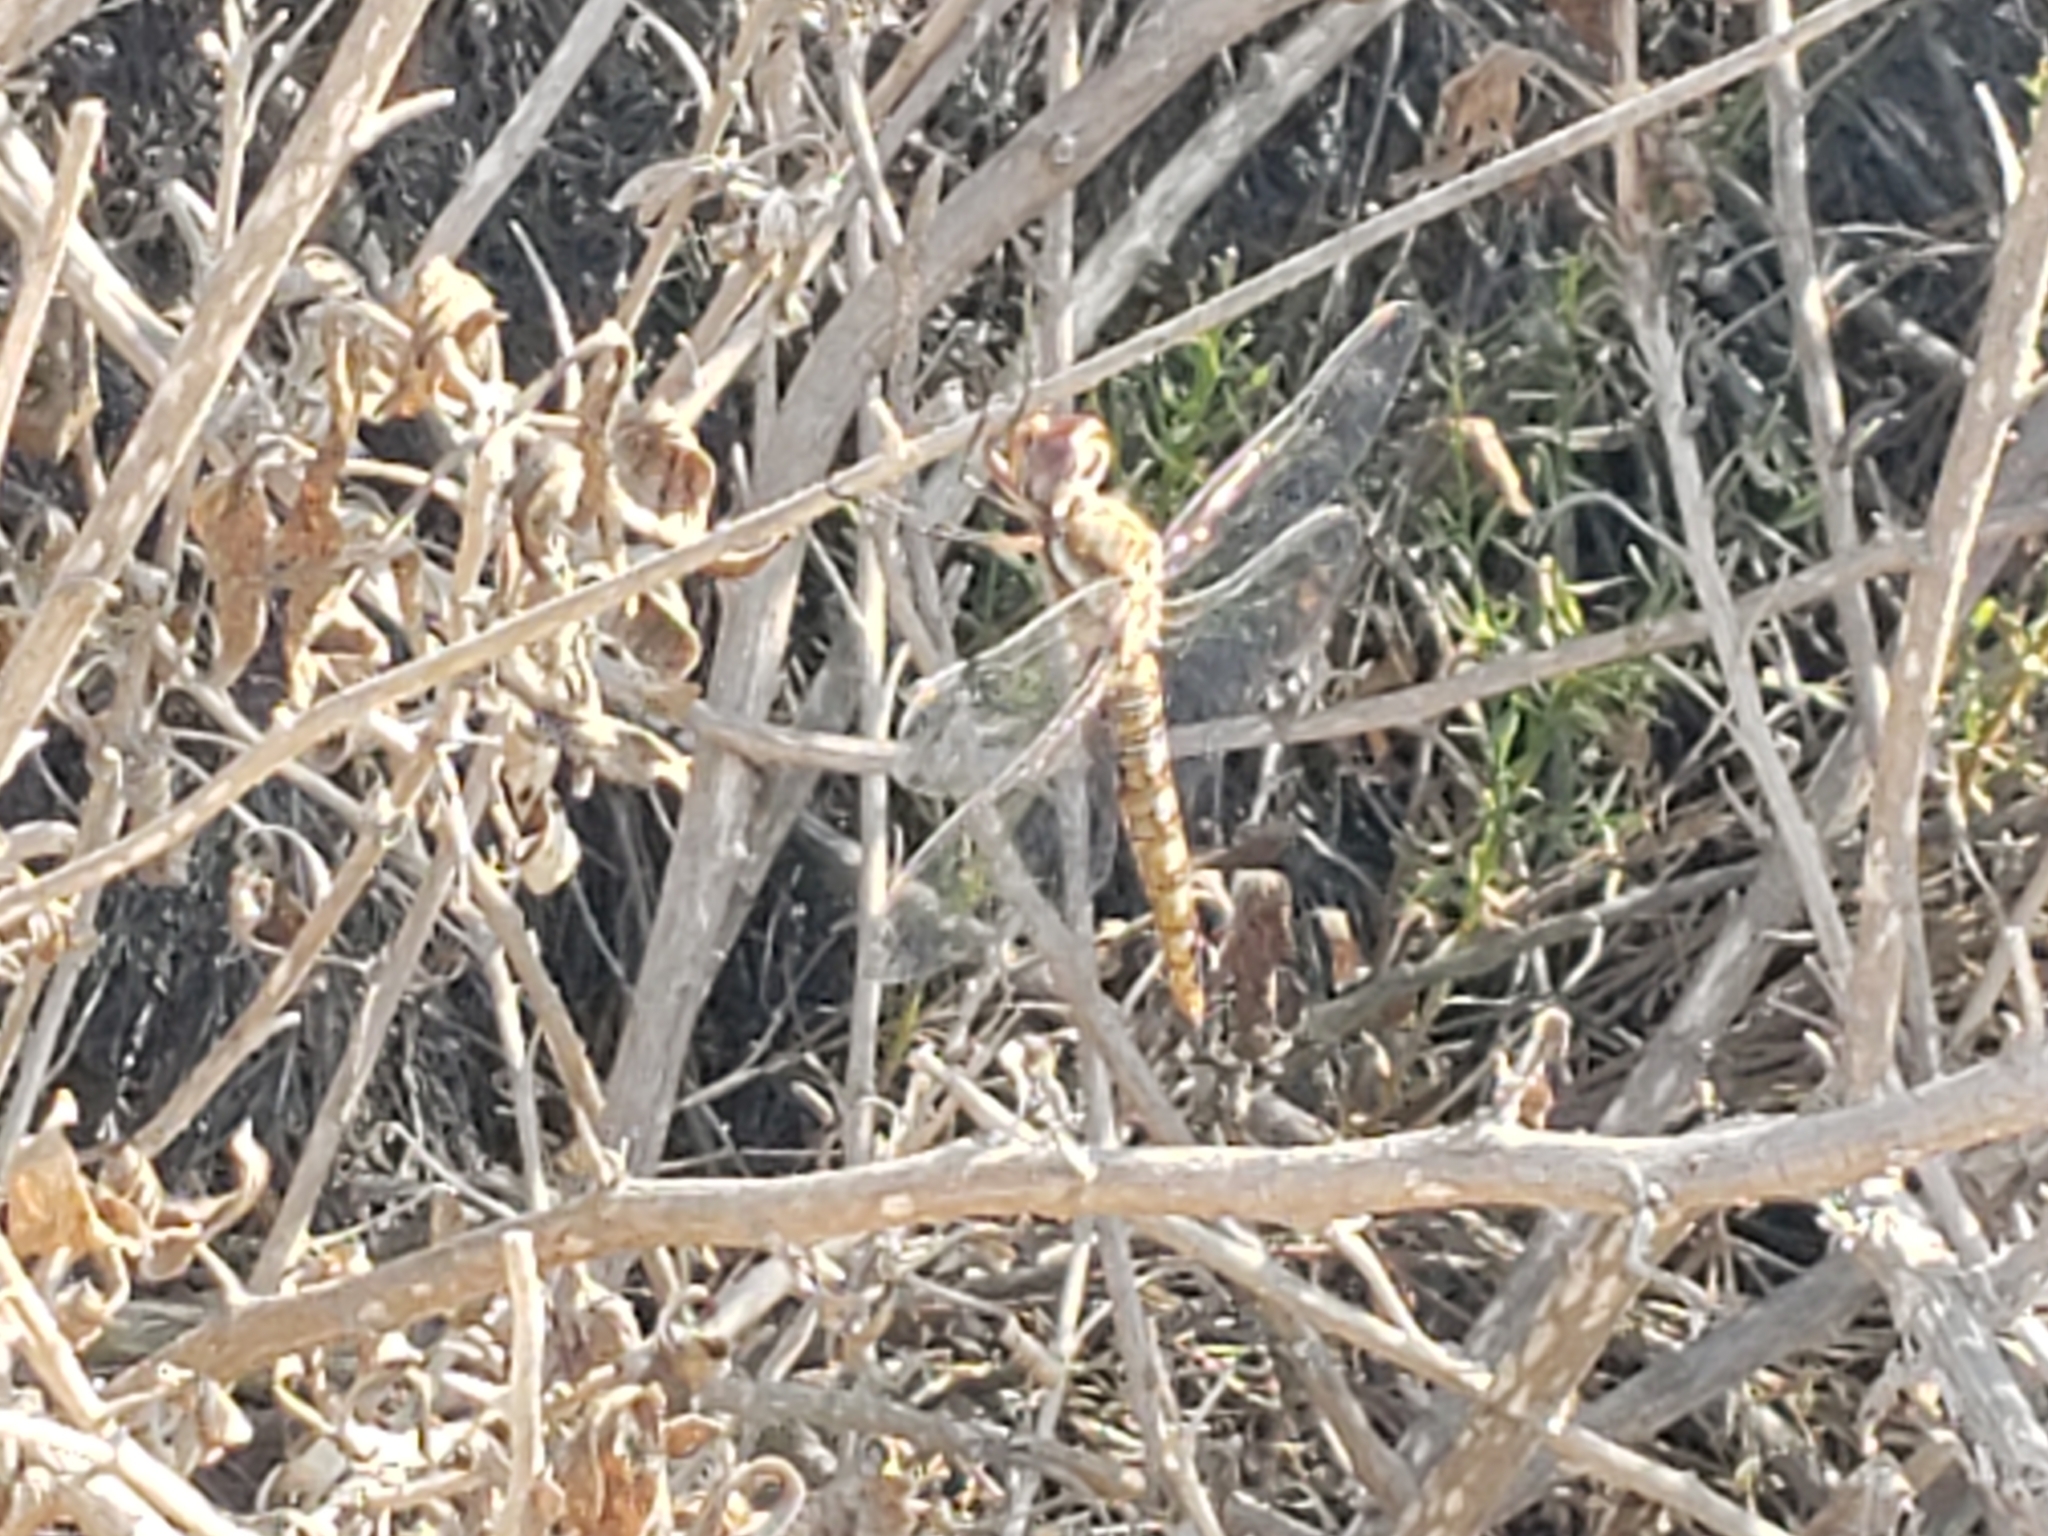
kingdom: Animalia
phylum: Arthropoda
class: Insecta
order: Odonata
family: Libellulidae
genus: Pantala
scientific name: Pantala hymenaea
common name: Spot-winged glider
